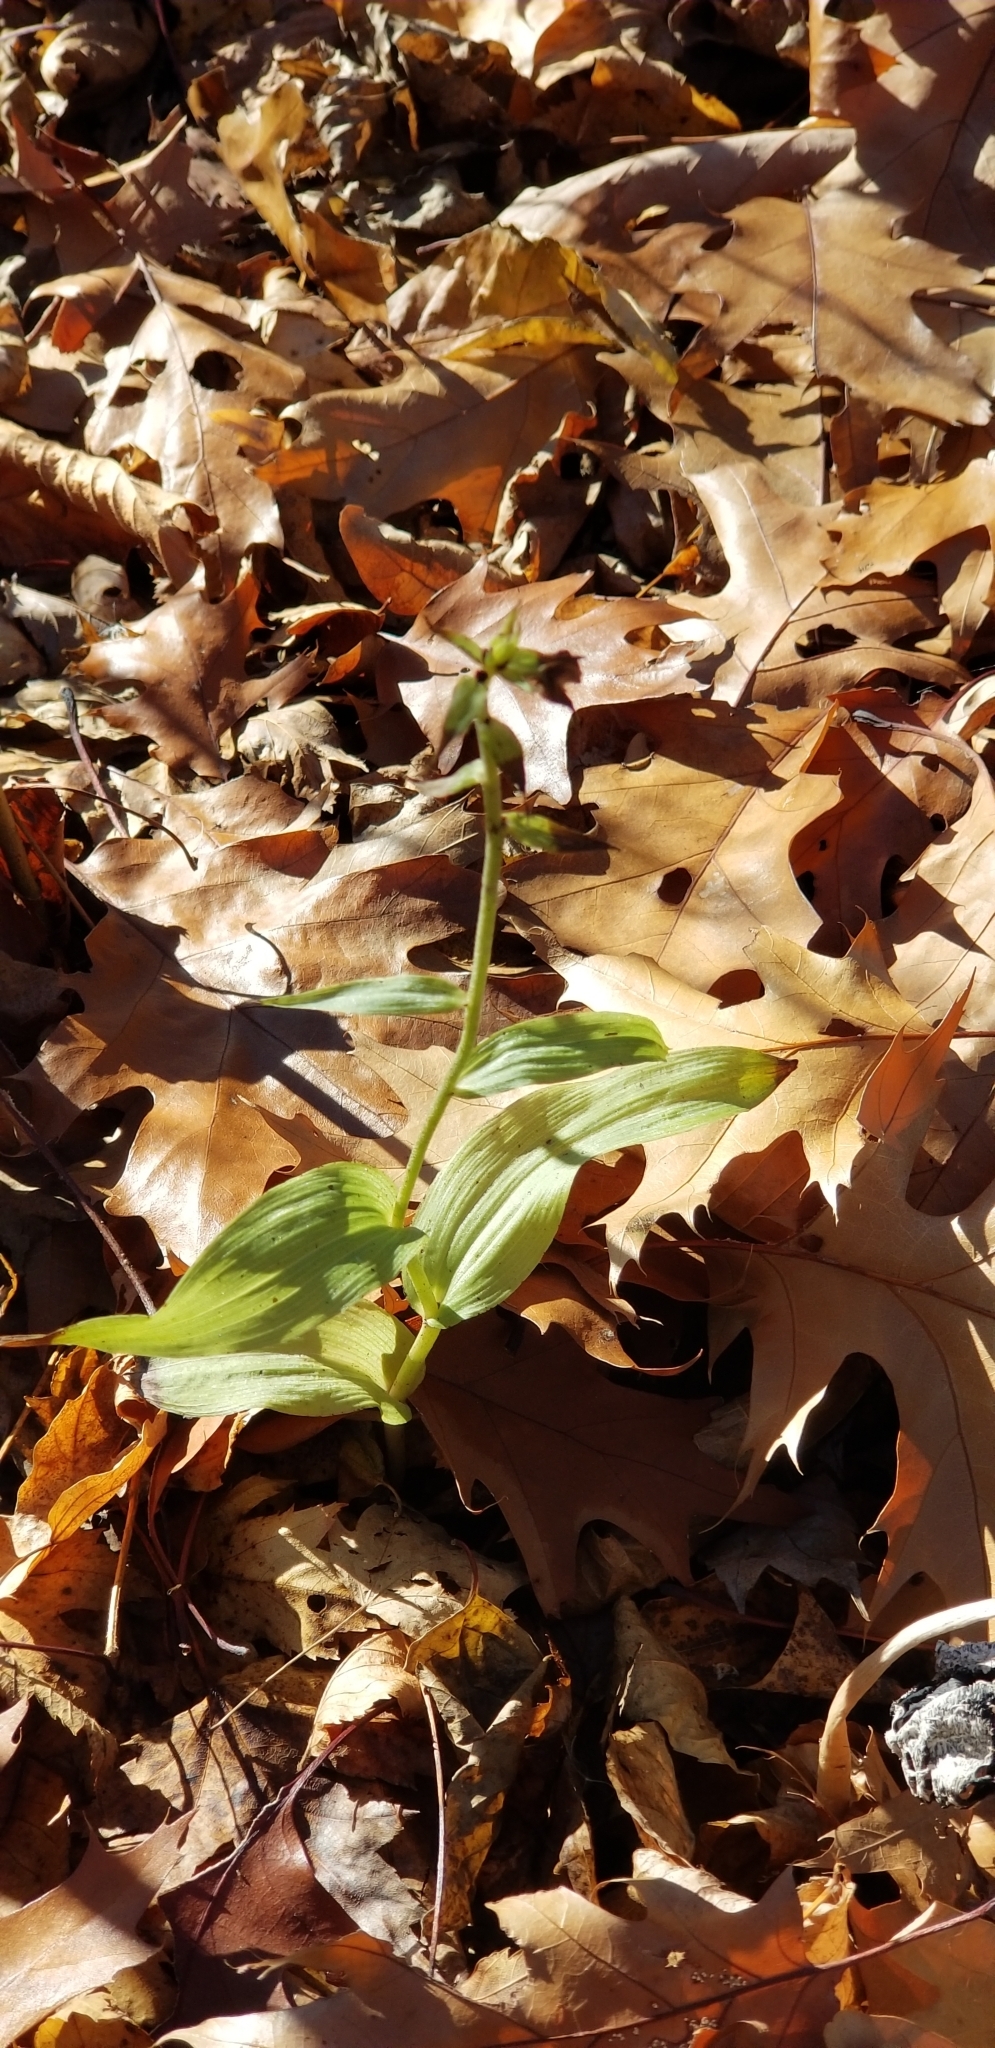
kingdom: Plantae
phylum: Tracheophyta
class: Liliopsida
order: Asparagales
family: Orchidaceae
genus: Epipactis
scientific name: Epipactis helleborine
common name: Broad-leaved helleborine
